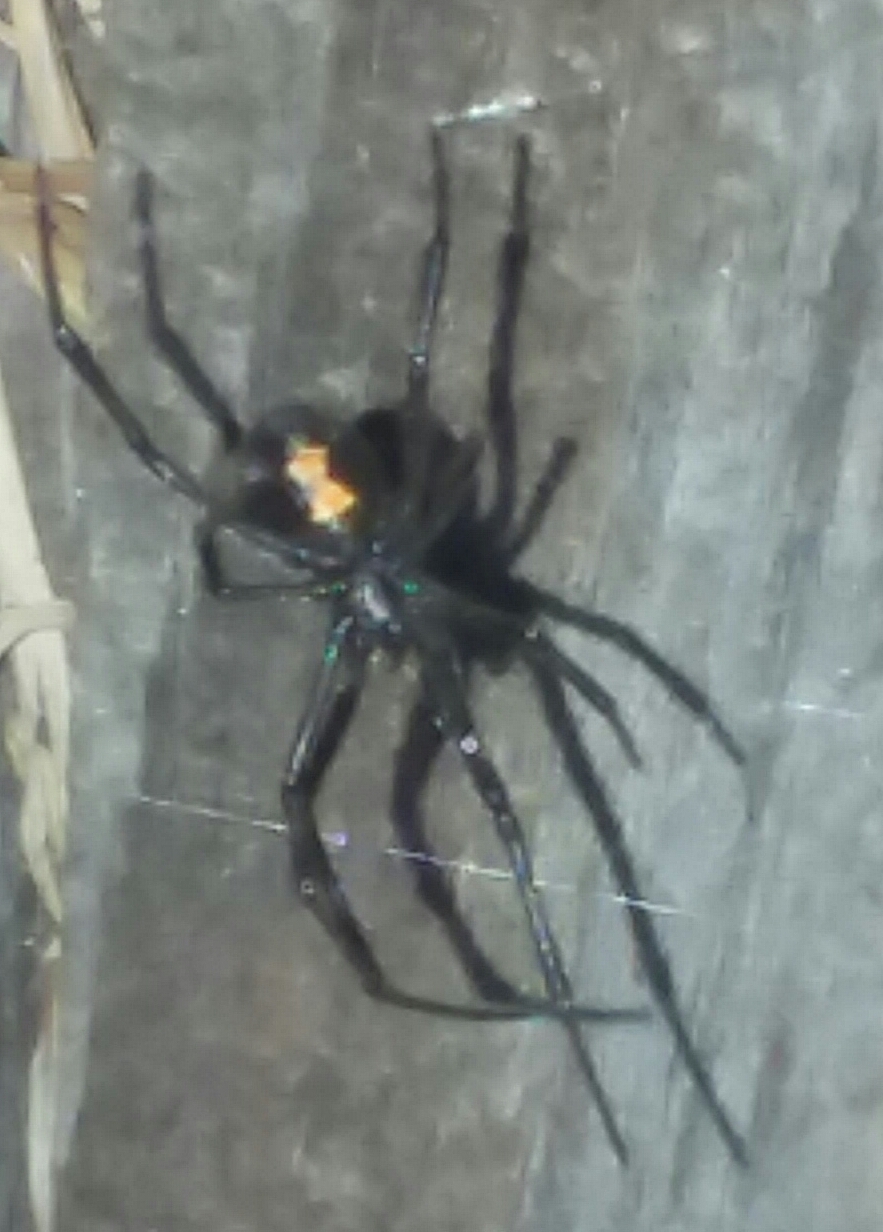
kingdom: Animalia
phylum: Arthropoda
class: Arachnida
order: Araneae
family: Theridiidae
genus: Latrodectus
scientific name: Latrodectus hesperus
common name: Western black widow
